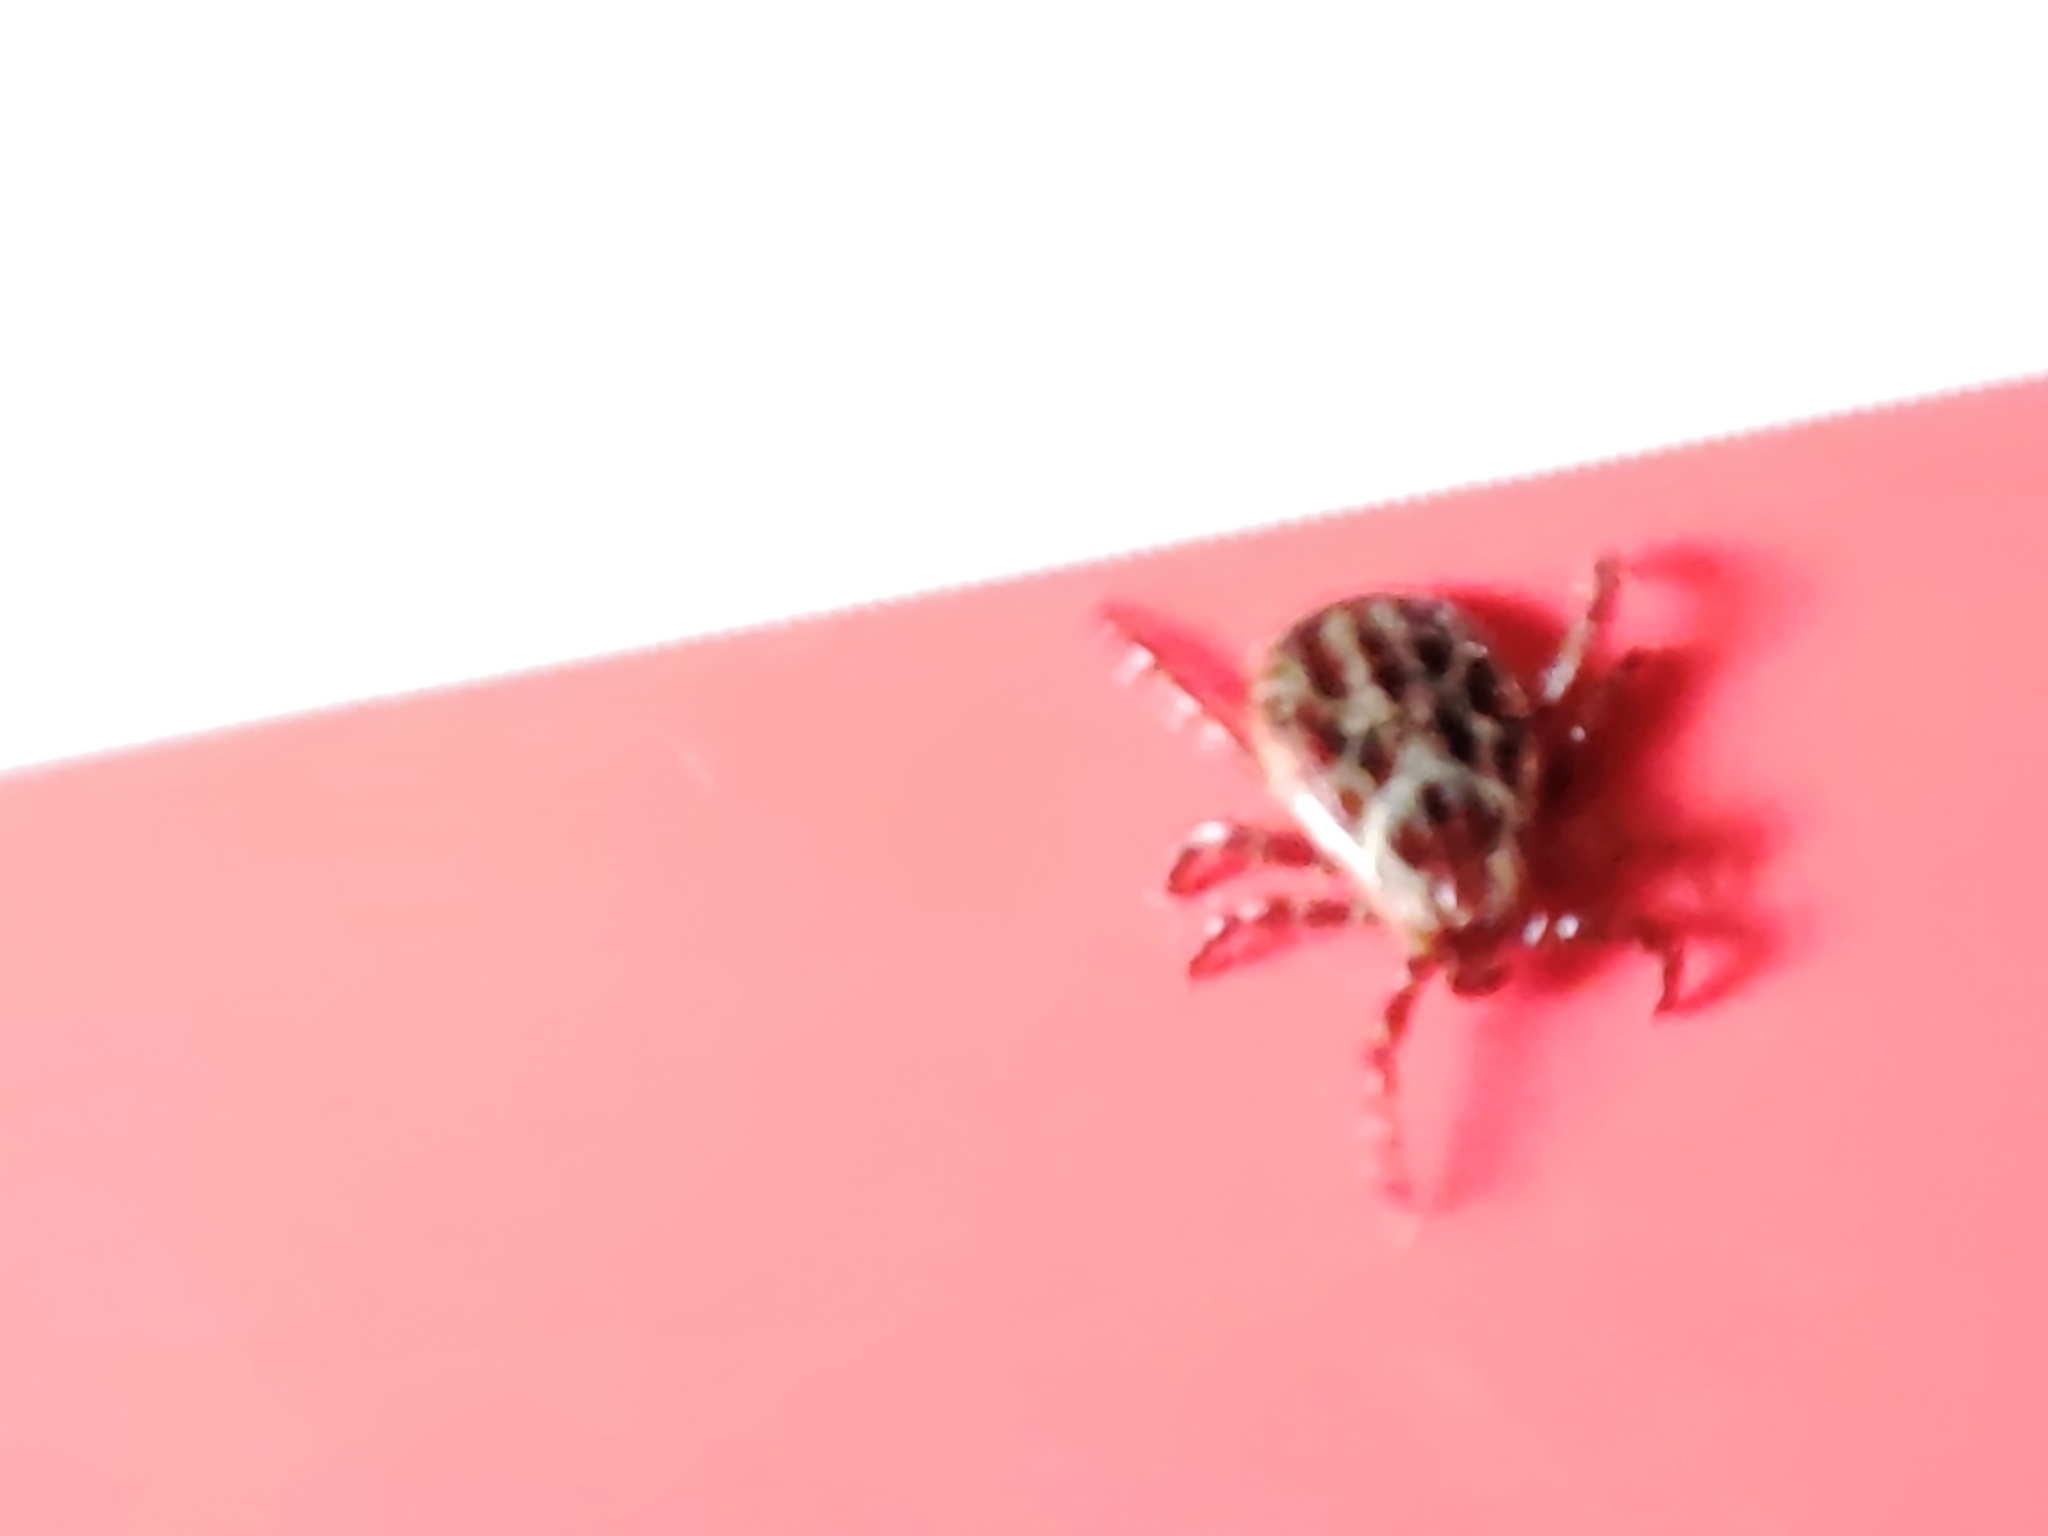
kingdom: Animalia
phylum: Arthropoda
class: Arachnida
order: Ixodida
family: Ixodidae
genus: Dermacentor
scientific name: Dermacentor reticulatus
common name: Ornate cow tick
